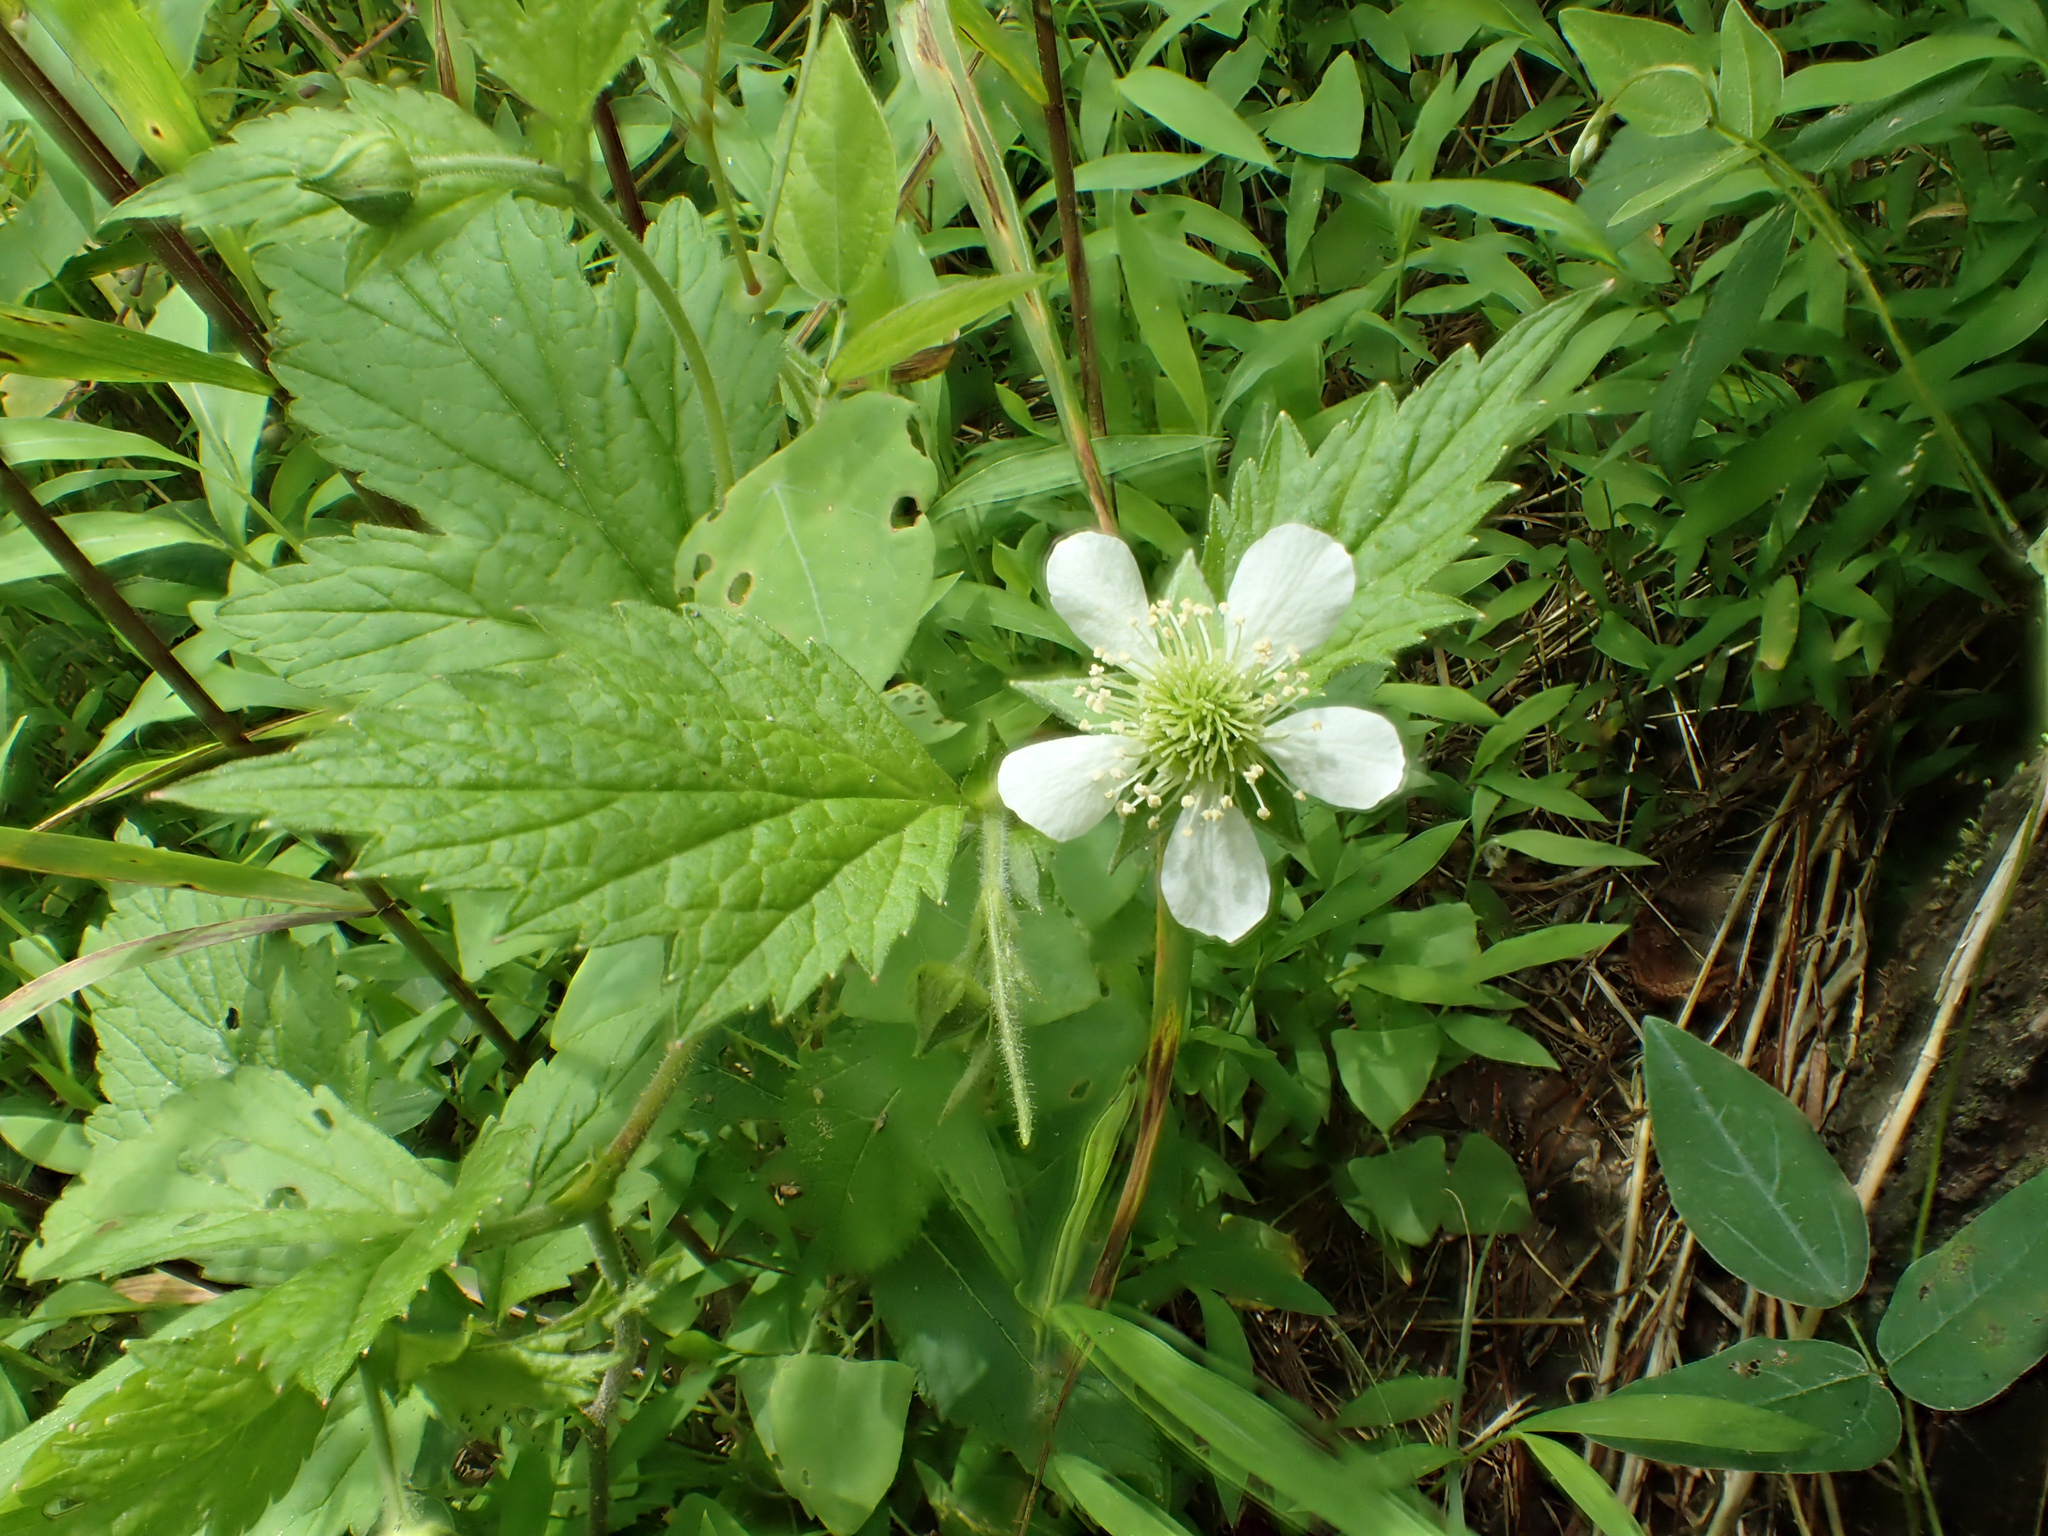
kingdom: Plantae
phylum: Tracheophyta
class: Magnoliopsida
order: Rosales
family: Rosaceae
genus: Geum
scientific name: Geum canadense
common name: White avens
